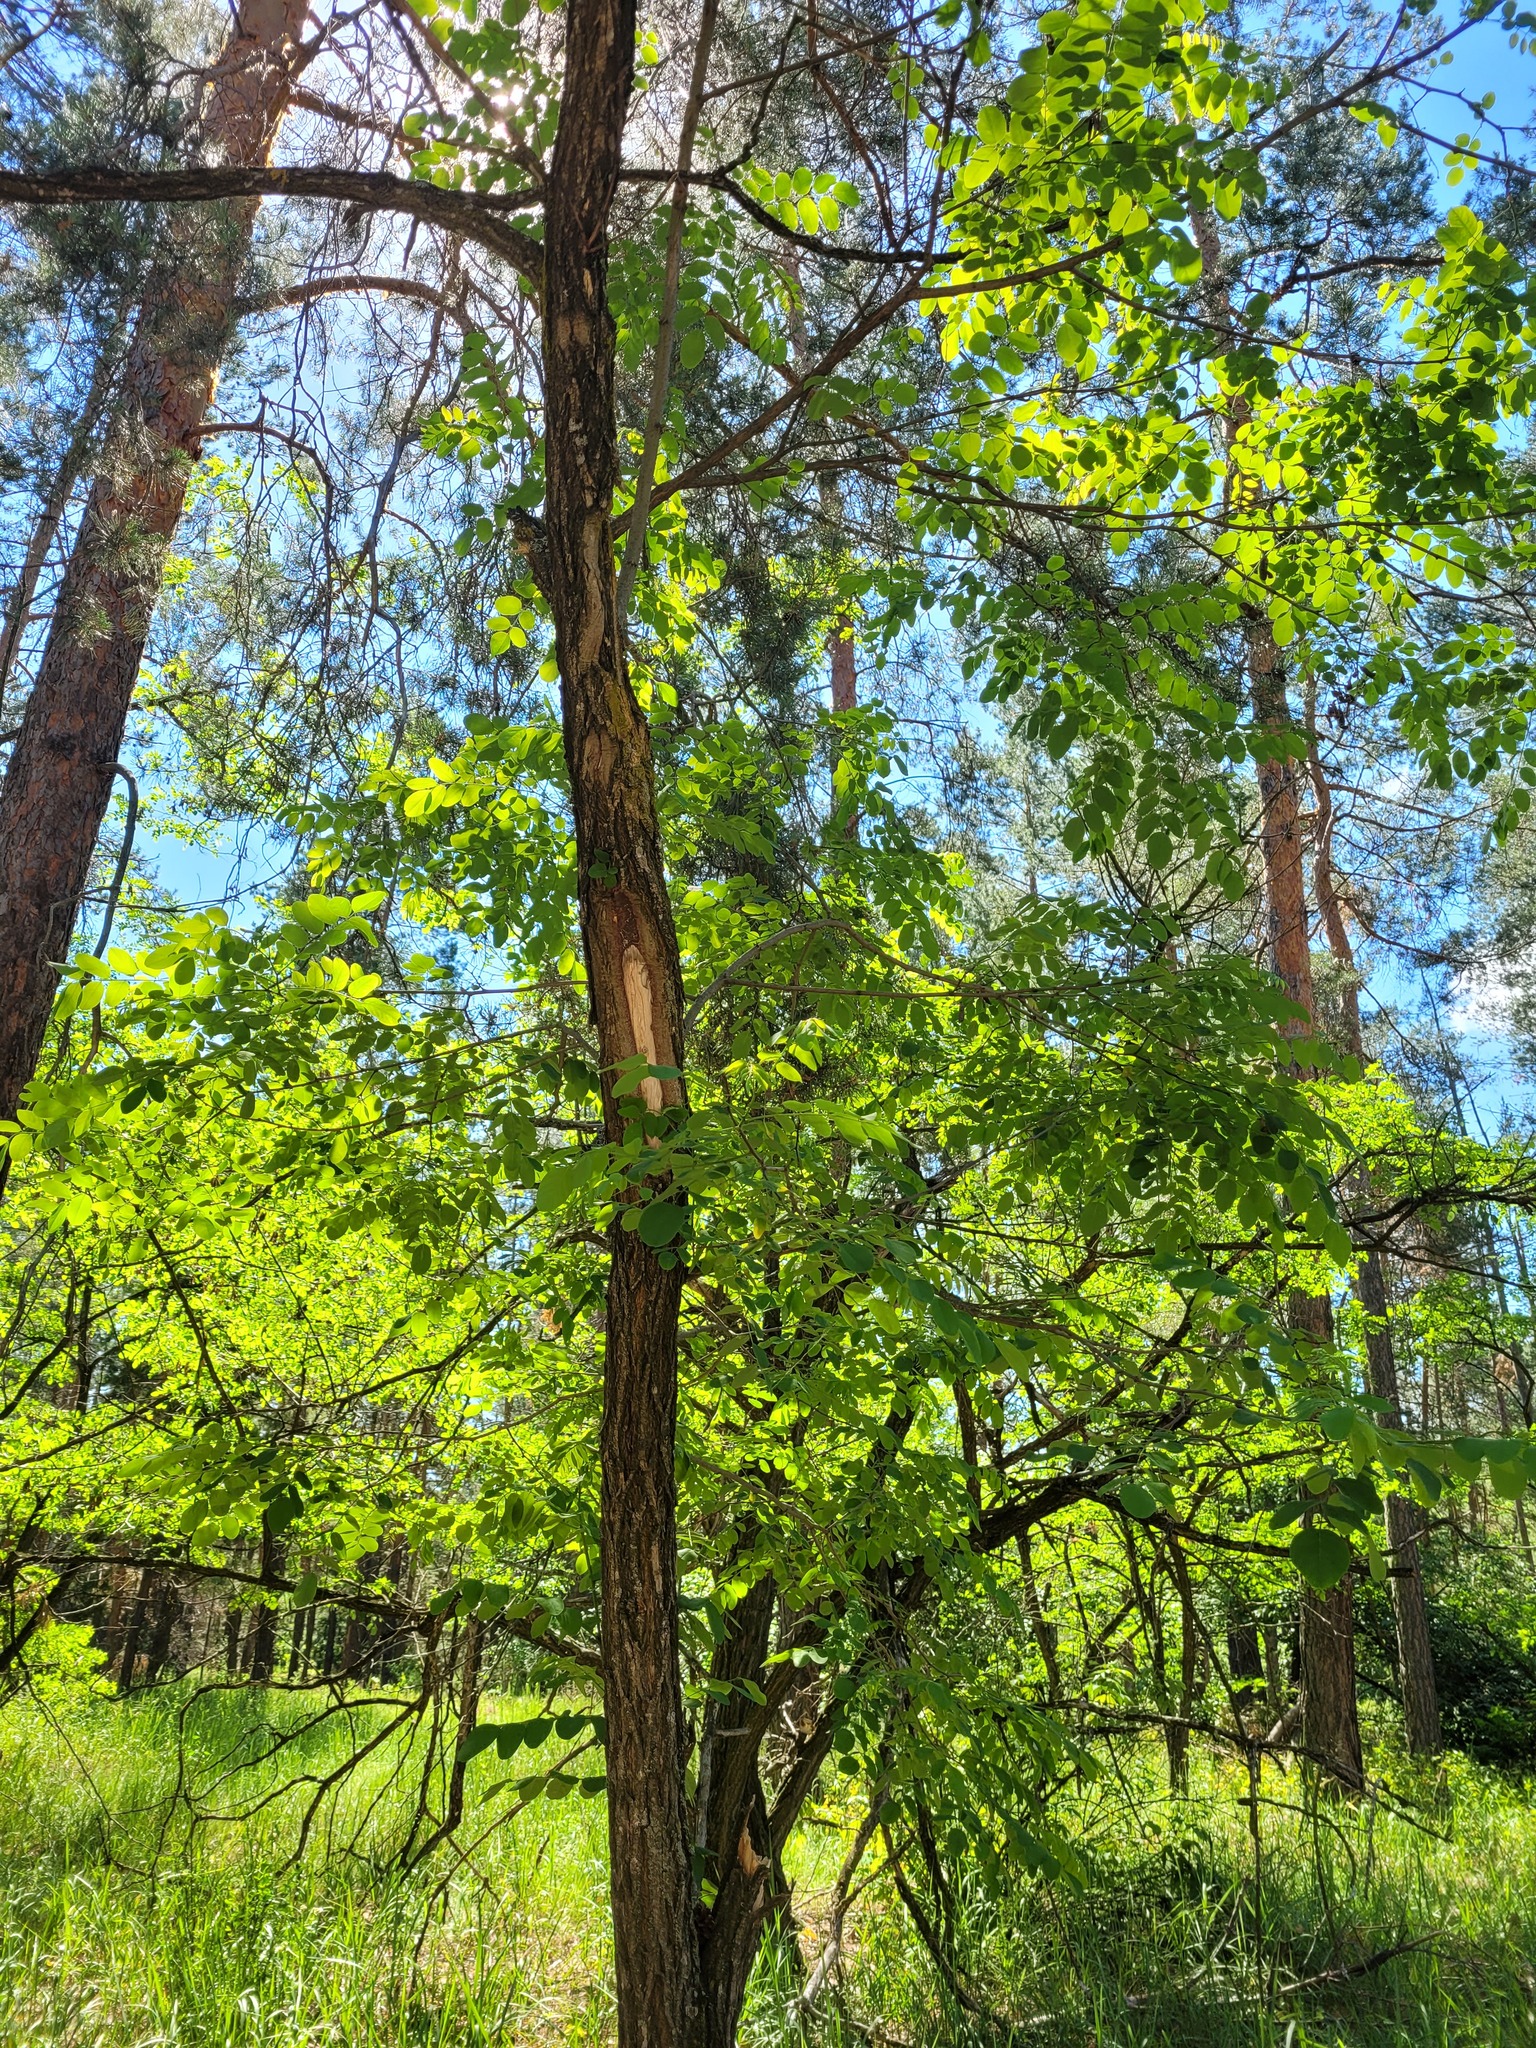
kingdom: Plantae
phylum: Tracheophyta
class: Magnoliopsida
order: Fabales
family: Fabaceae
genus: Robinia
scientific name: Robinia pseudoacacia
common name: Black locust
